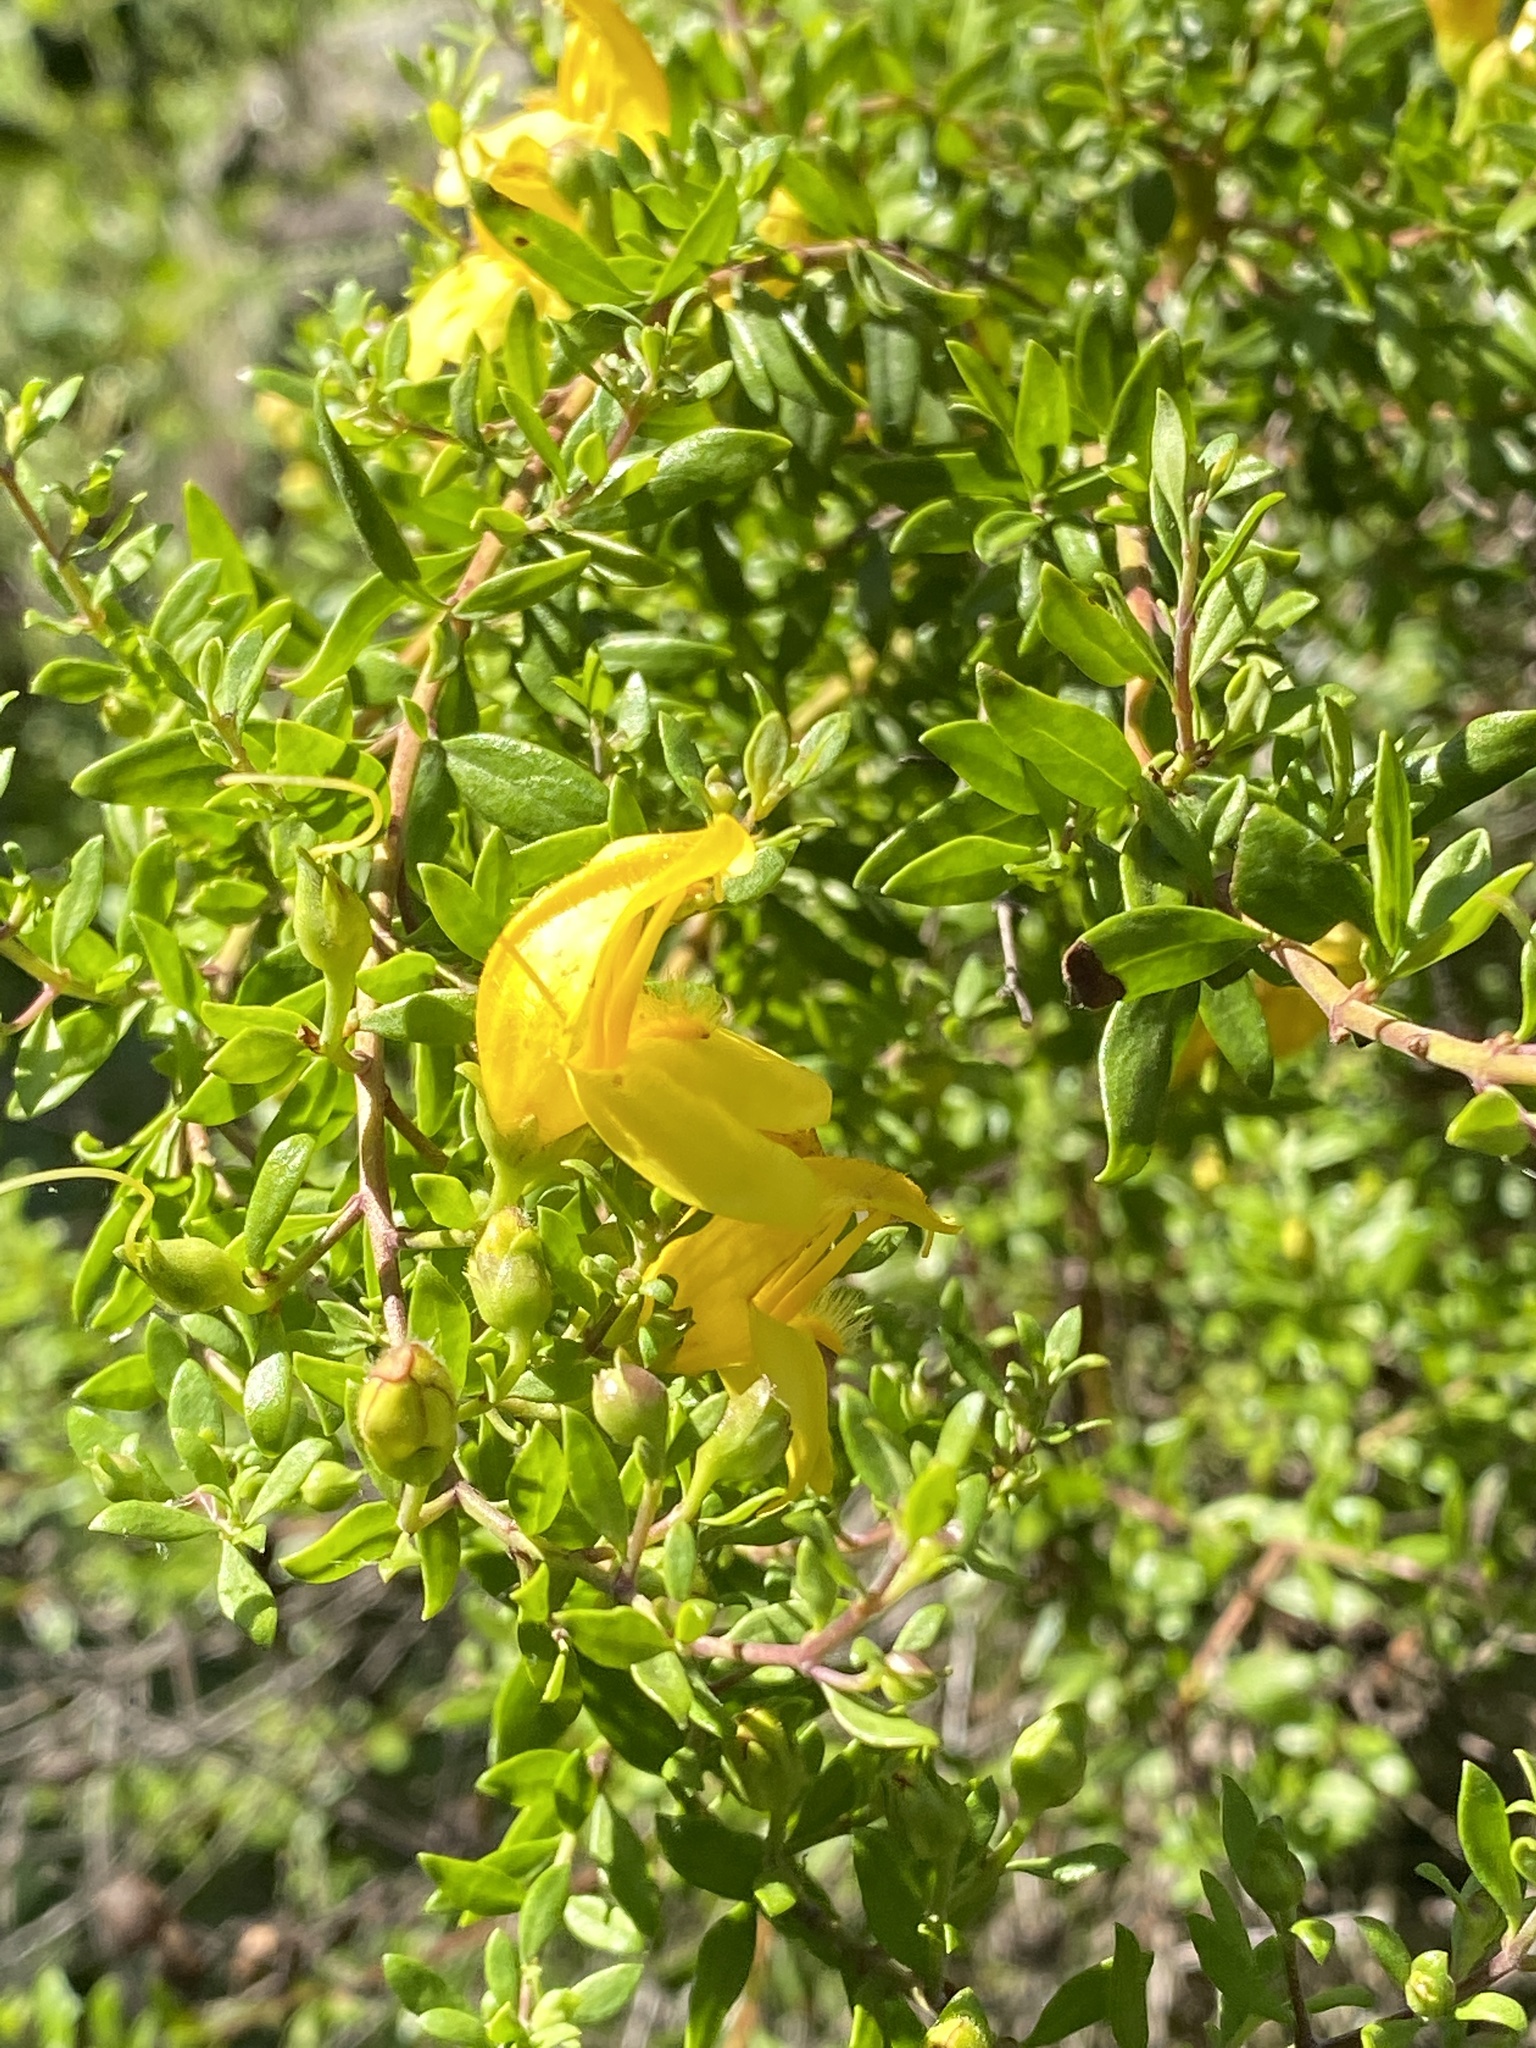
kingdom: Plantae
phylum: Tracheophyta
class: Magnoliopsida
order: Lamiales
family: Plantaginaceae
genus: Keckiella
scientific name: Keckiella antirrhinoides
